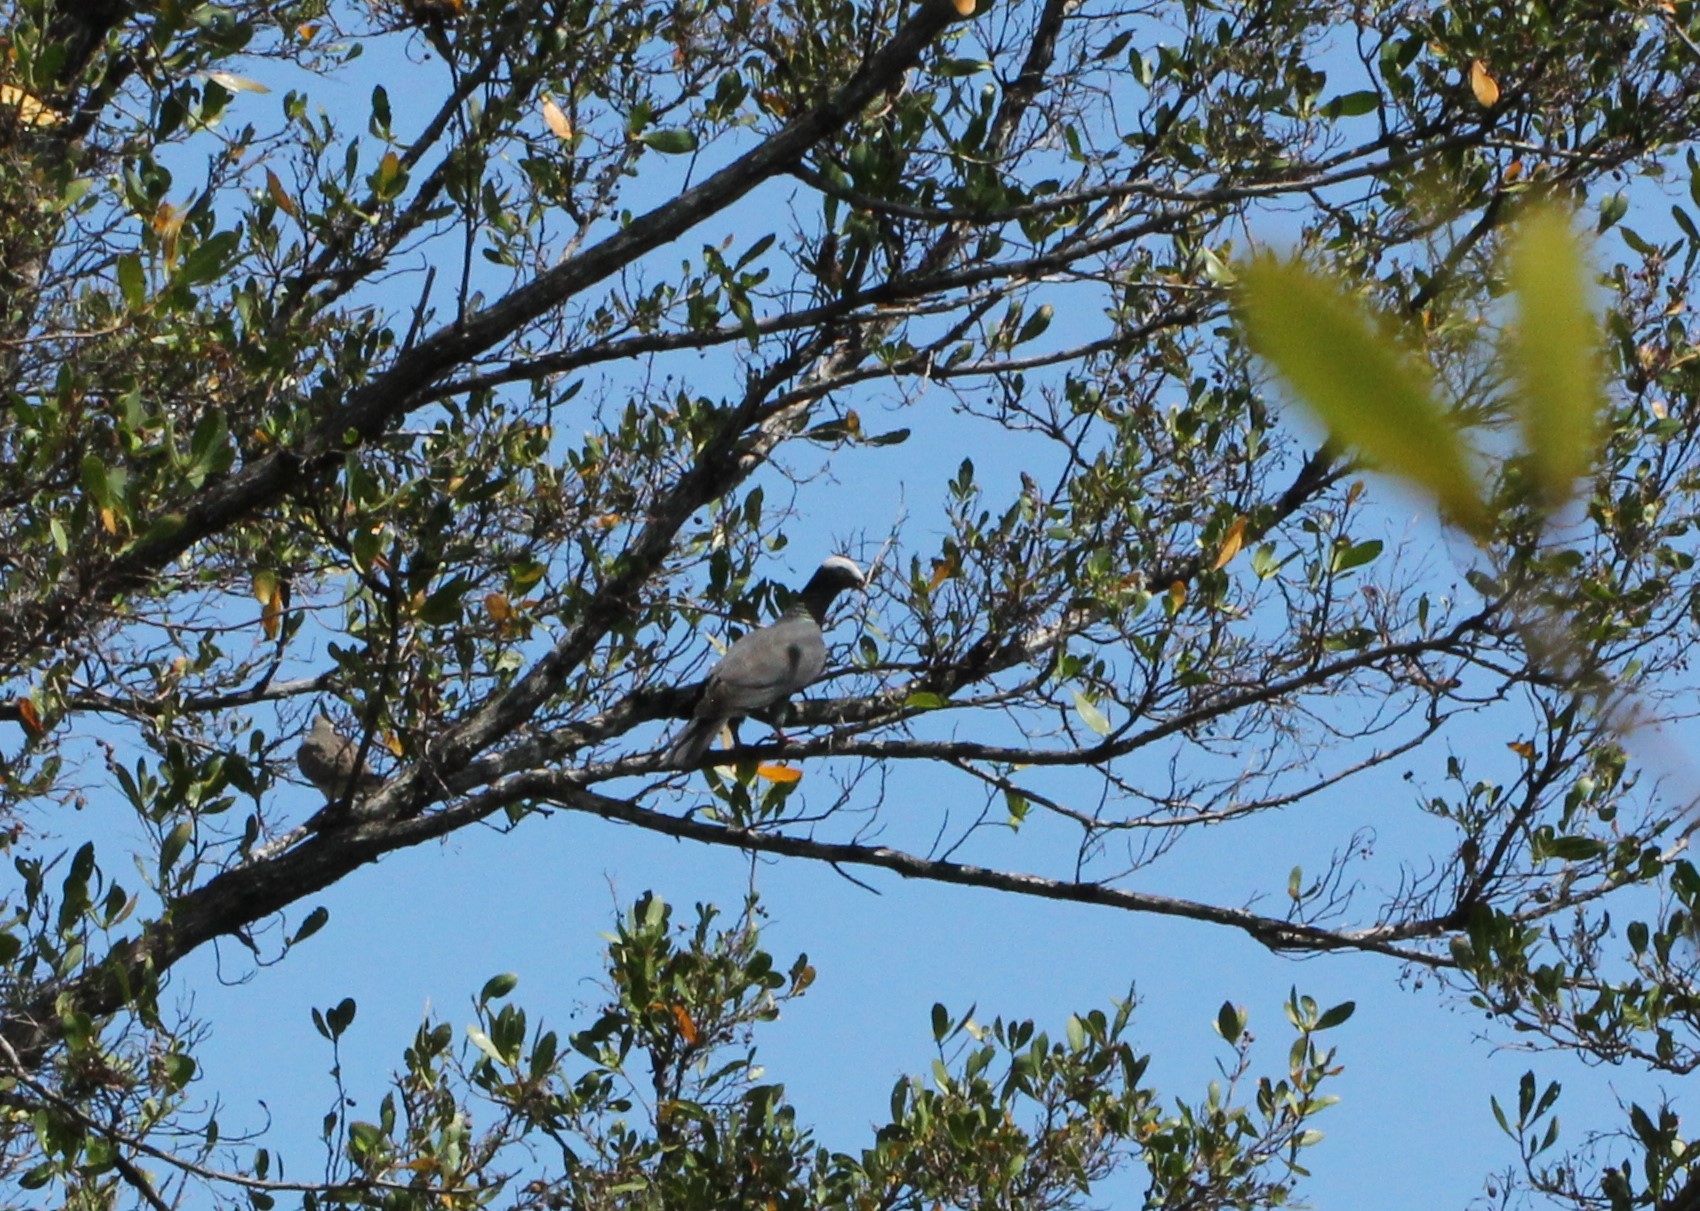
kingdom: Animalia
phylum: Chordata
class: Aves
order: Columbiformes
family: Columbidae
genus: Patagioenas
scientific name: Patagioenas leucocephala
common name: White-crowned pigeon
